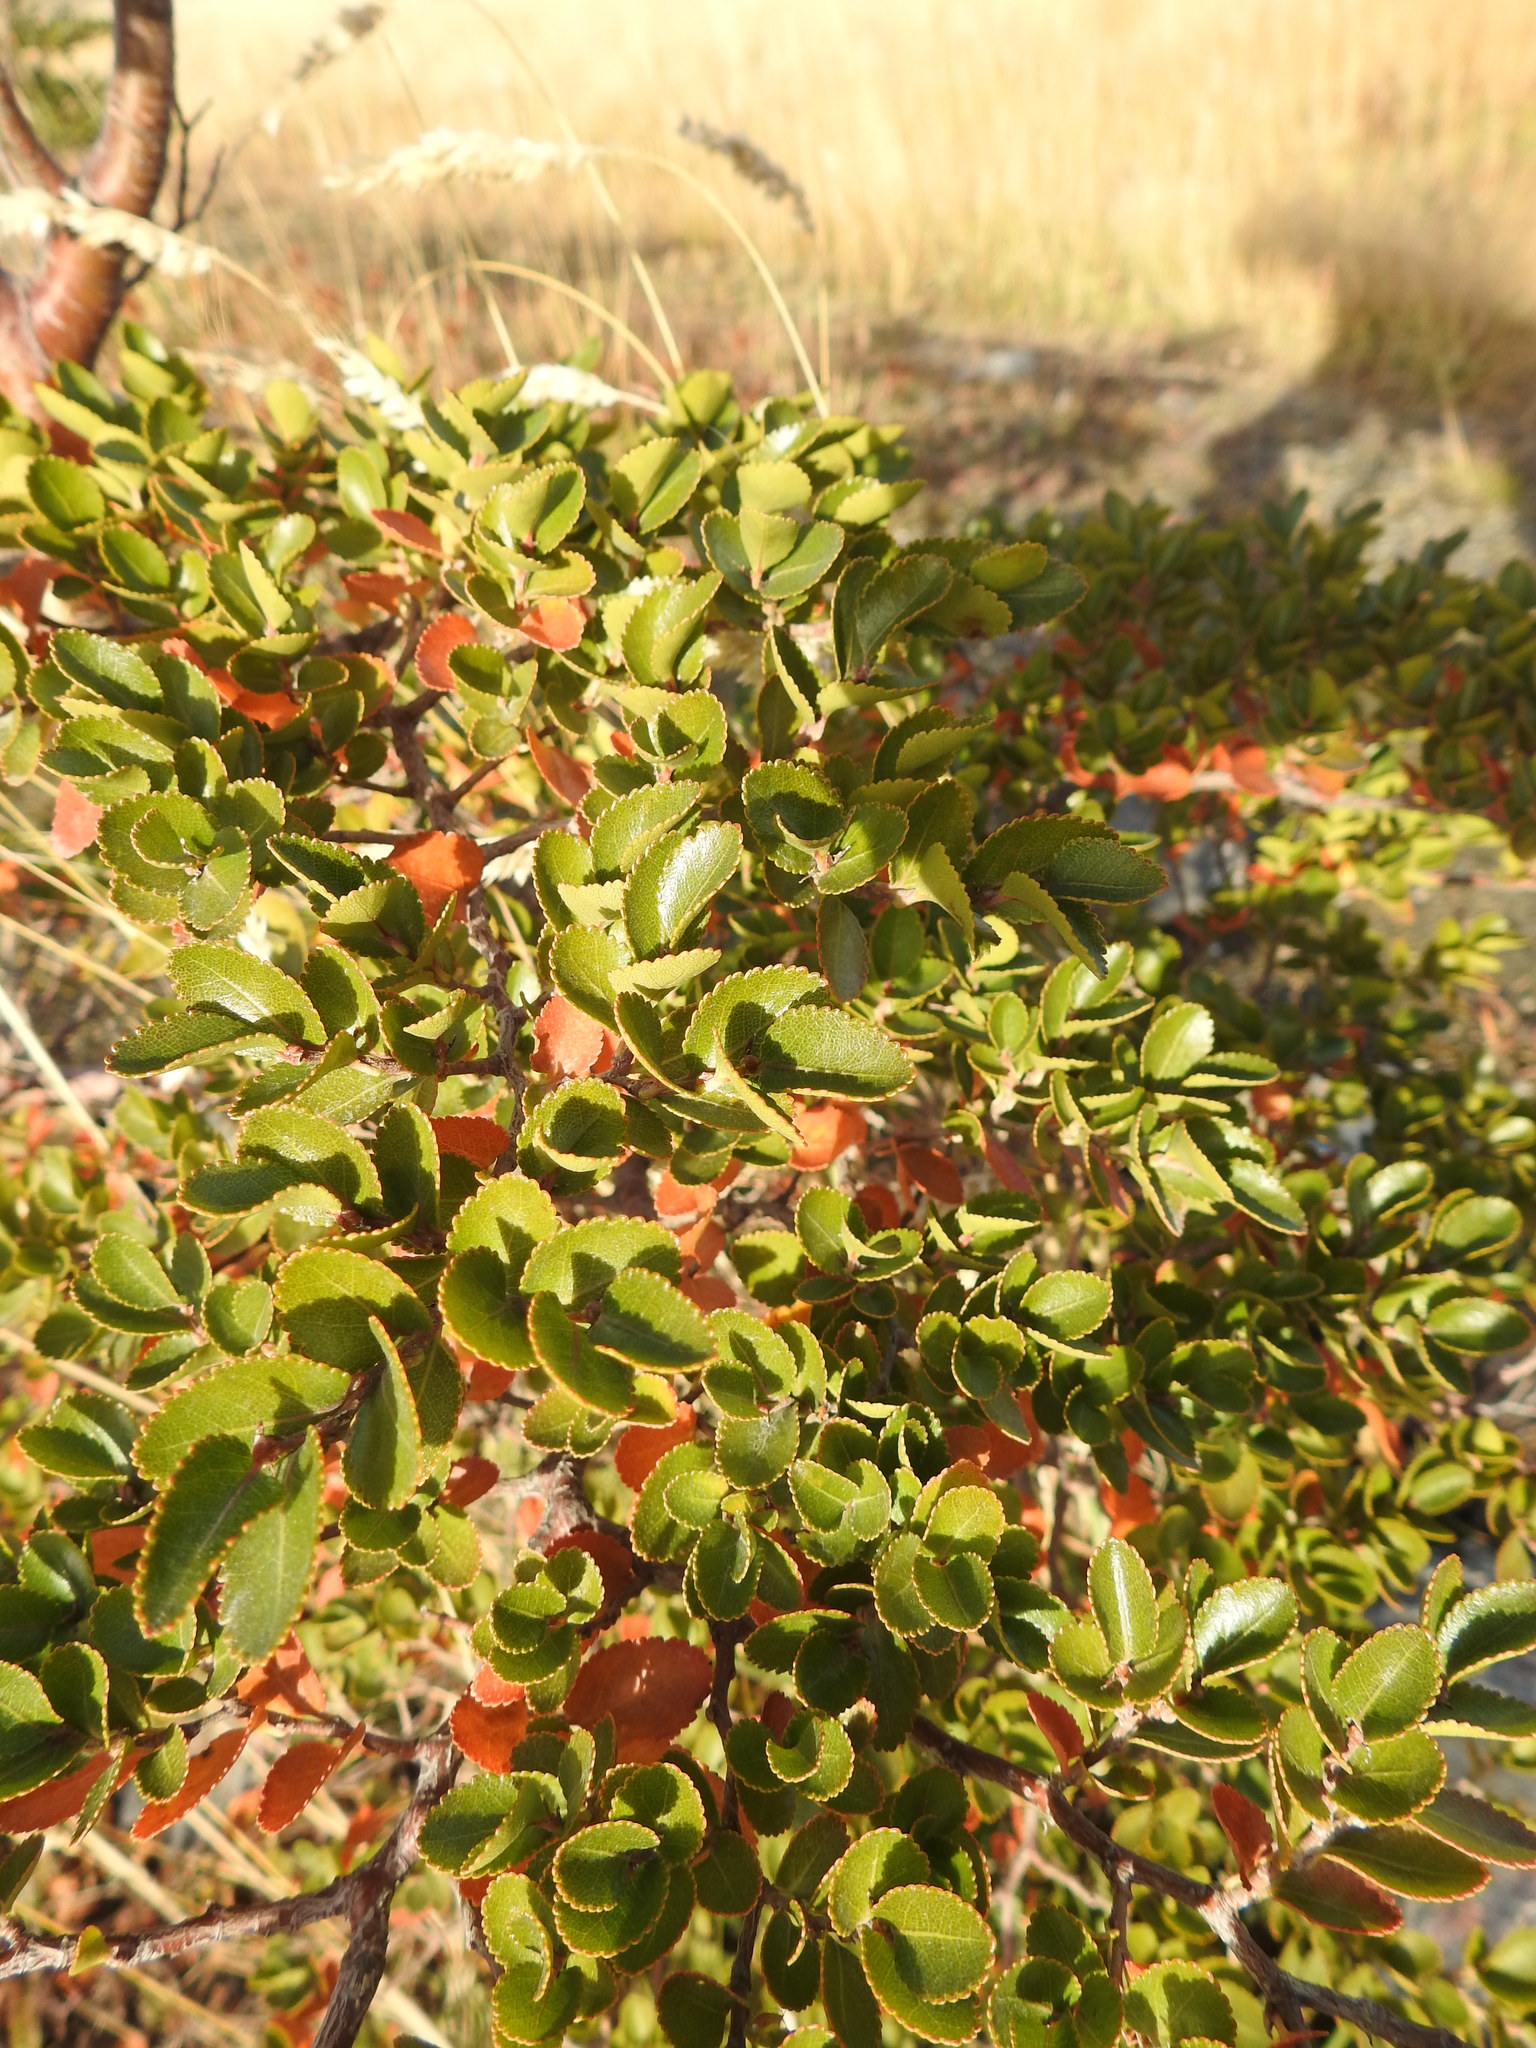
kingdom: Plantae
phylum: Tracheophyta
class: Magnoliopsida
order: Fagales
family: Nothofagaceae
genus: Nothofagus
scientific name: Nothofagus betuloides
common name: Magellan's beech
